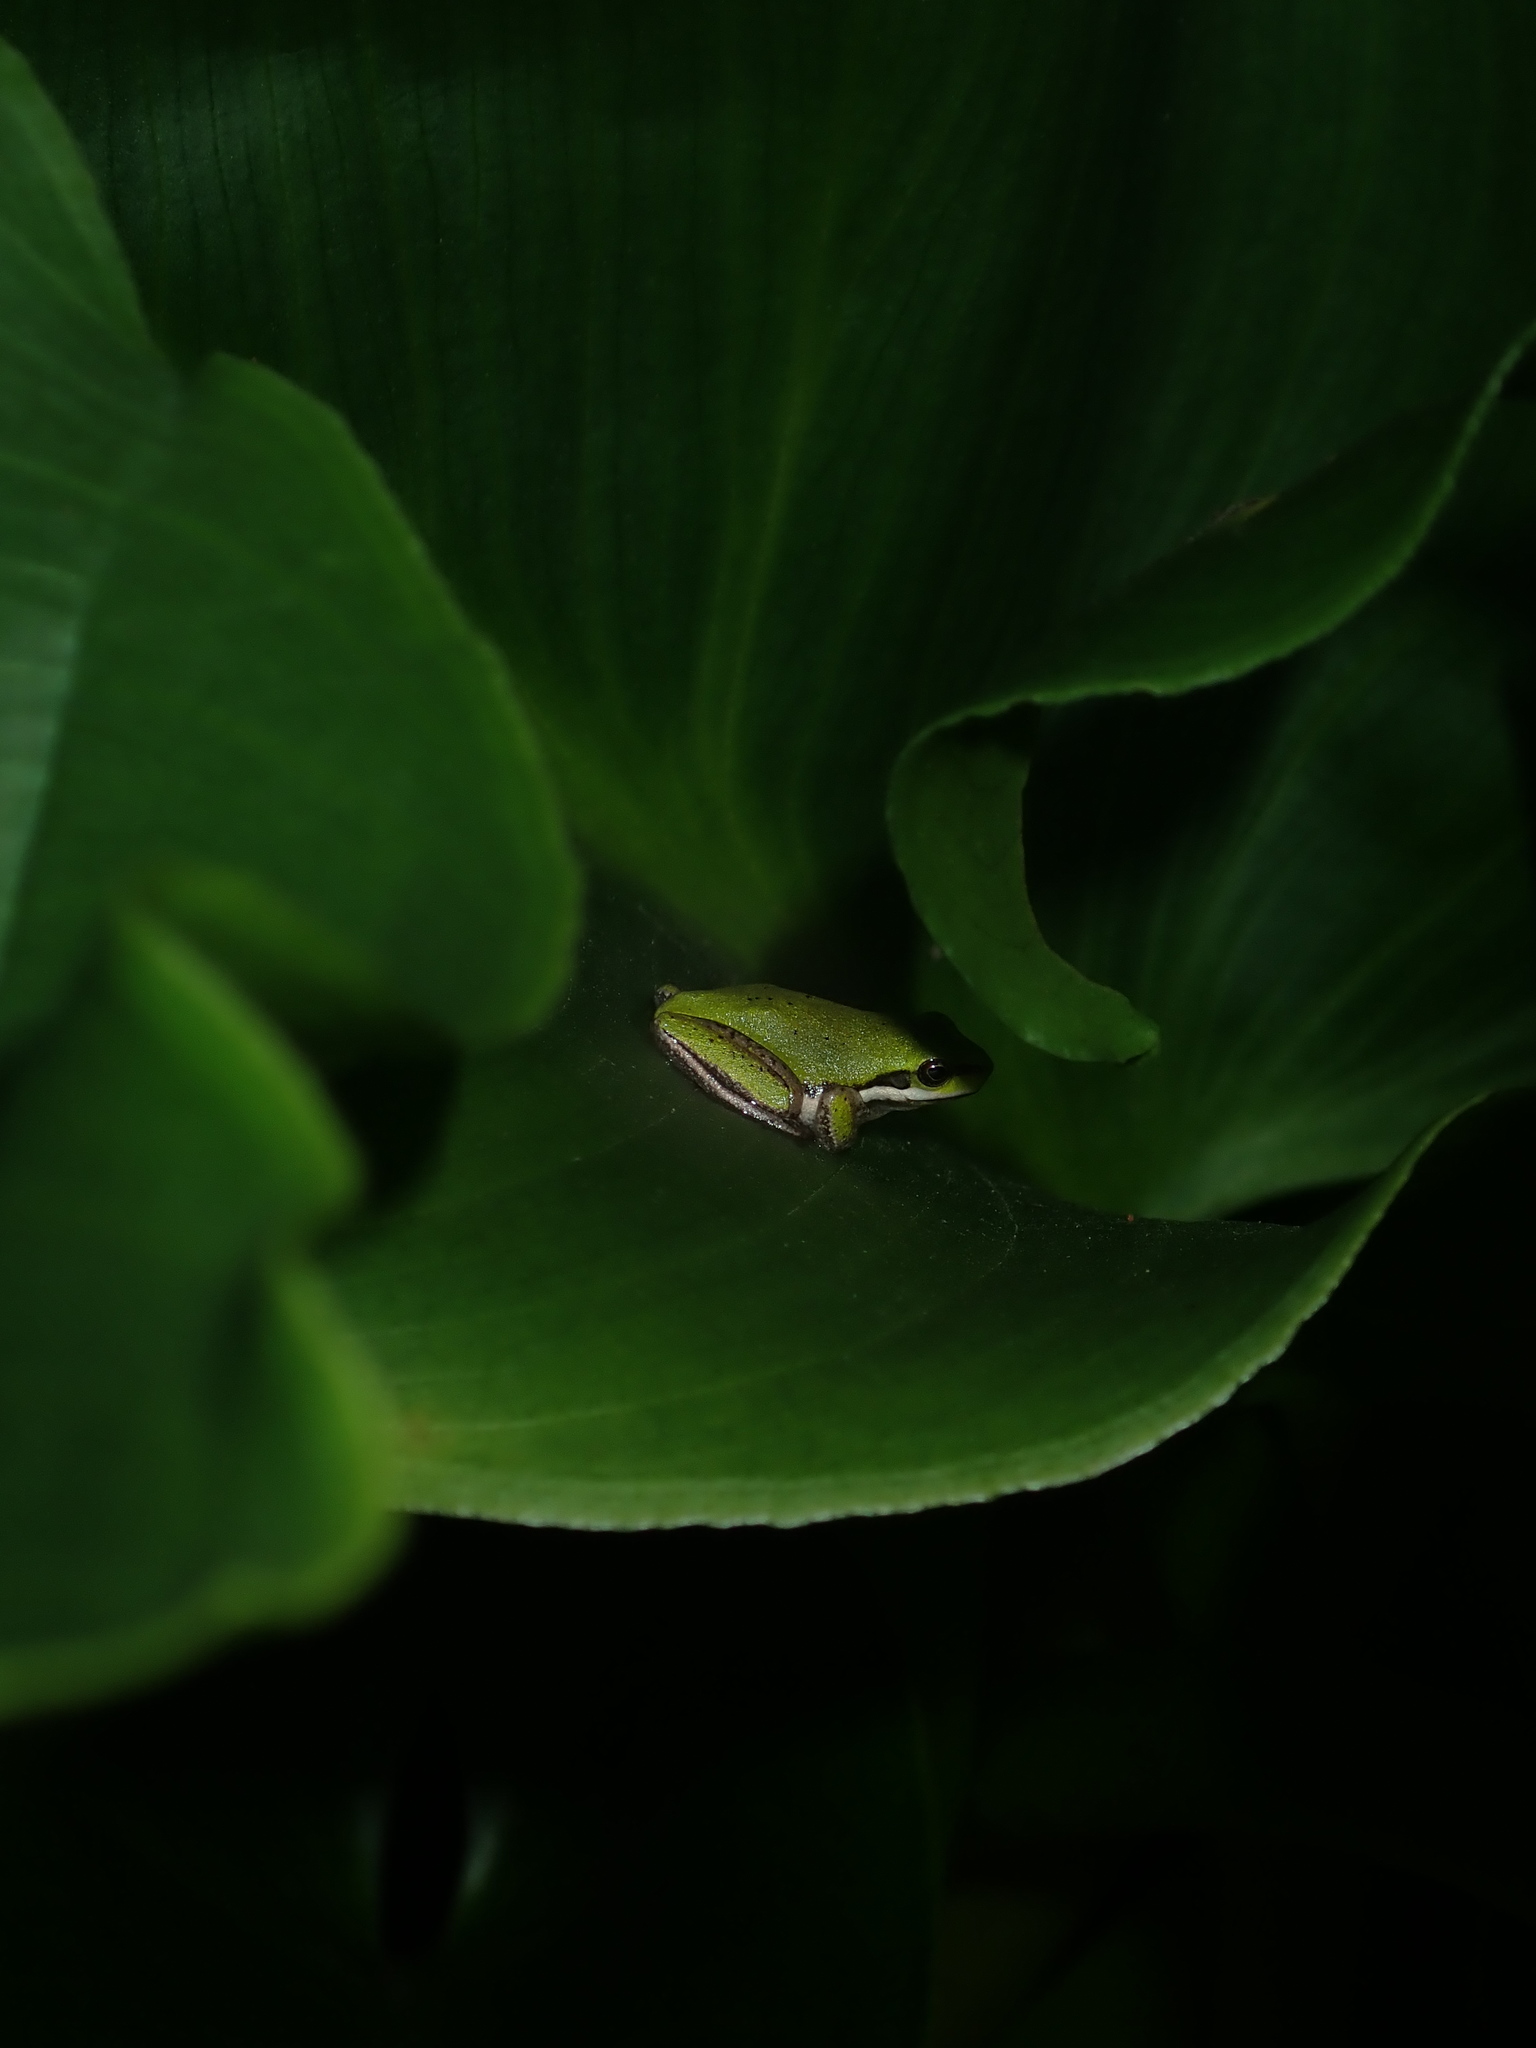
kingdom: Animalia
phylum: Chordata
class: Amphibia
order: Anura
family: Pelodryadidae
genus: Litoria
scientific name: Litoria fallax
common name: Eastern dwarf treefrog
